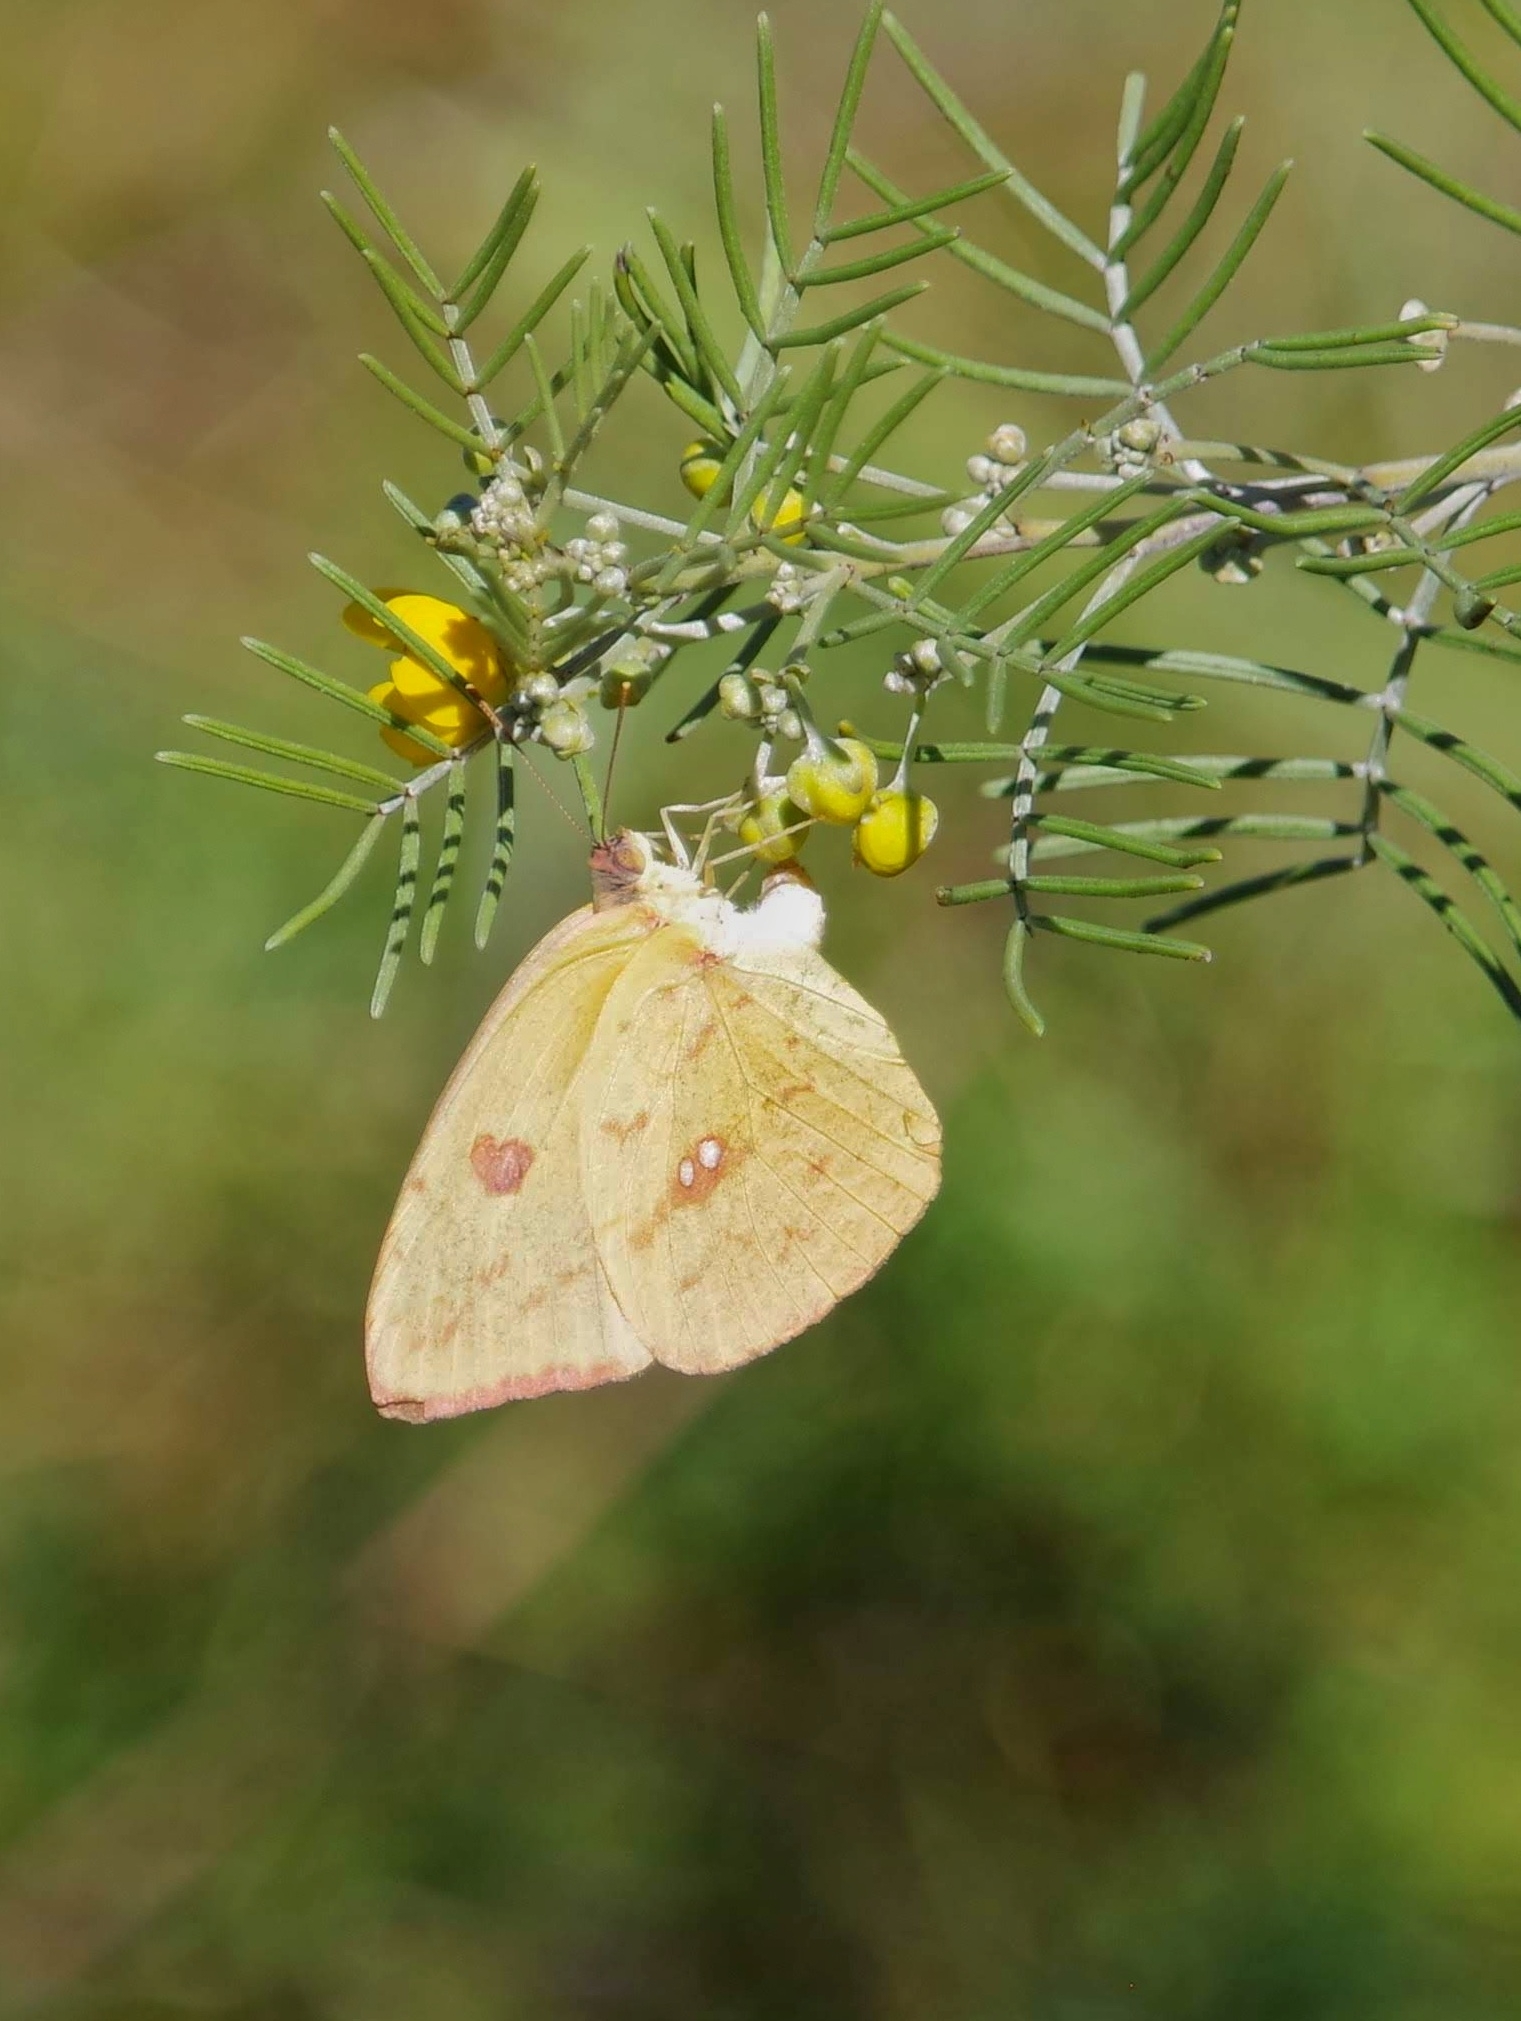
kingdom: Animalia
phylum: Arthropoda
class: Insecta
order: Lepidoptera
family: Pieridae
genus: Phoebis
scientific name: Phoebis sennae
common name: Cloudless sulphur
